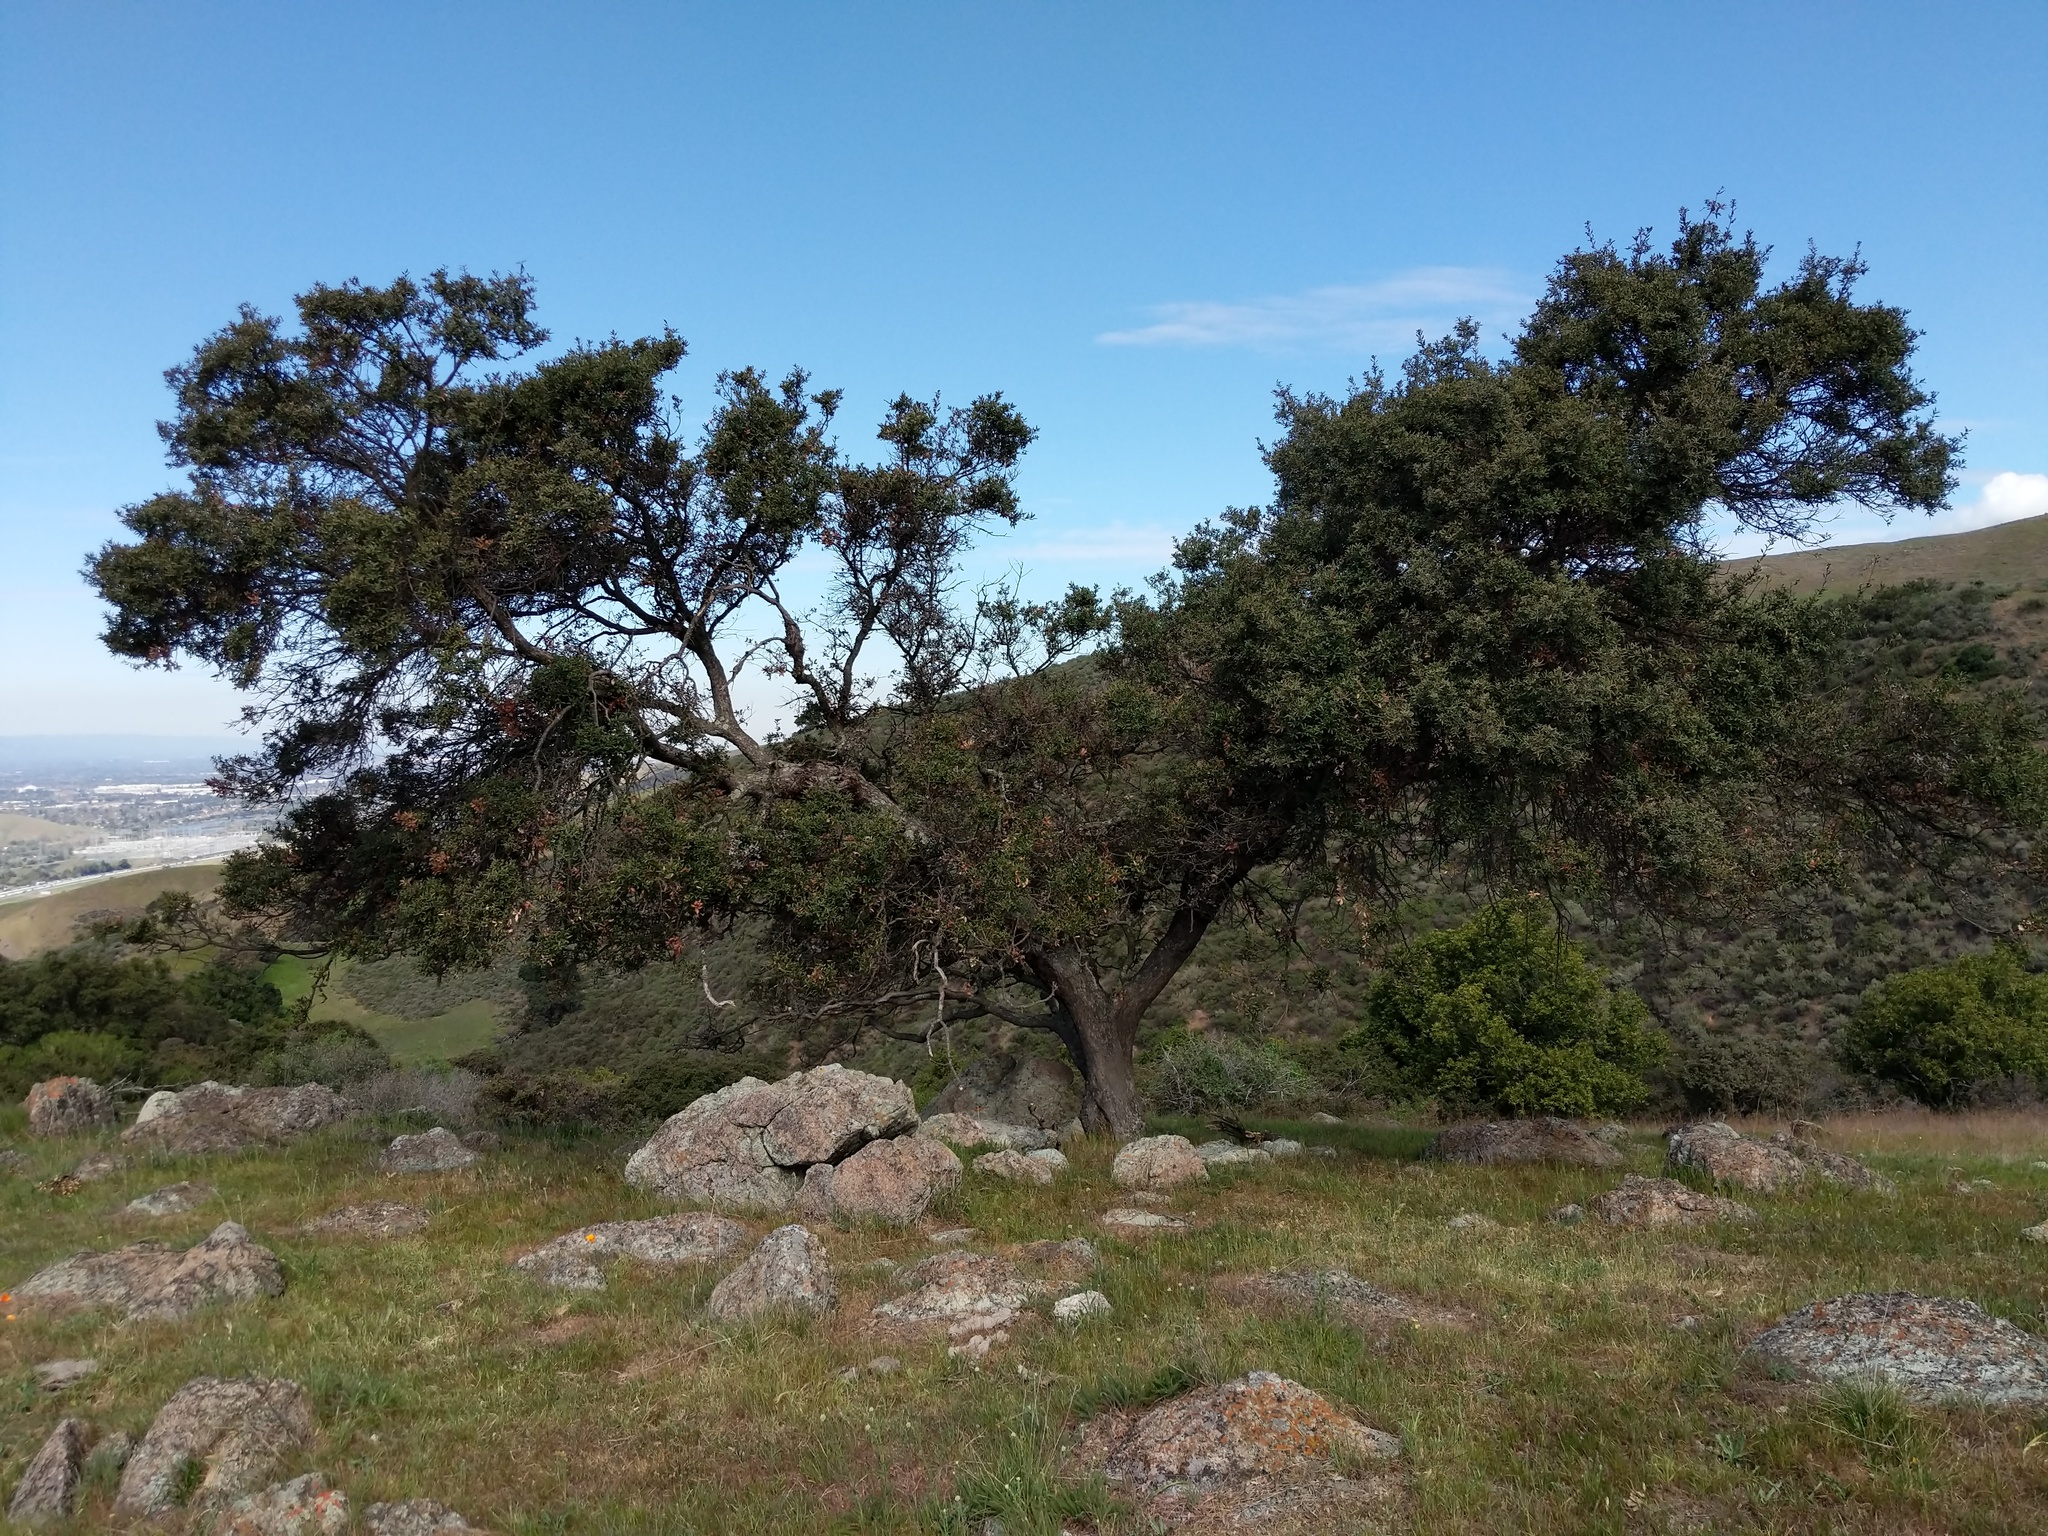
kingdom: Plantae
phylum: Tracheophyta
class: Magnoliopsida
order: Fagales
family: Fagaceae
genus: Quercus
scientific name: Quercus durata
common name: Leather oak
